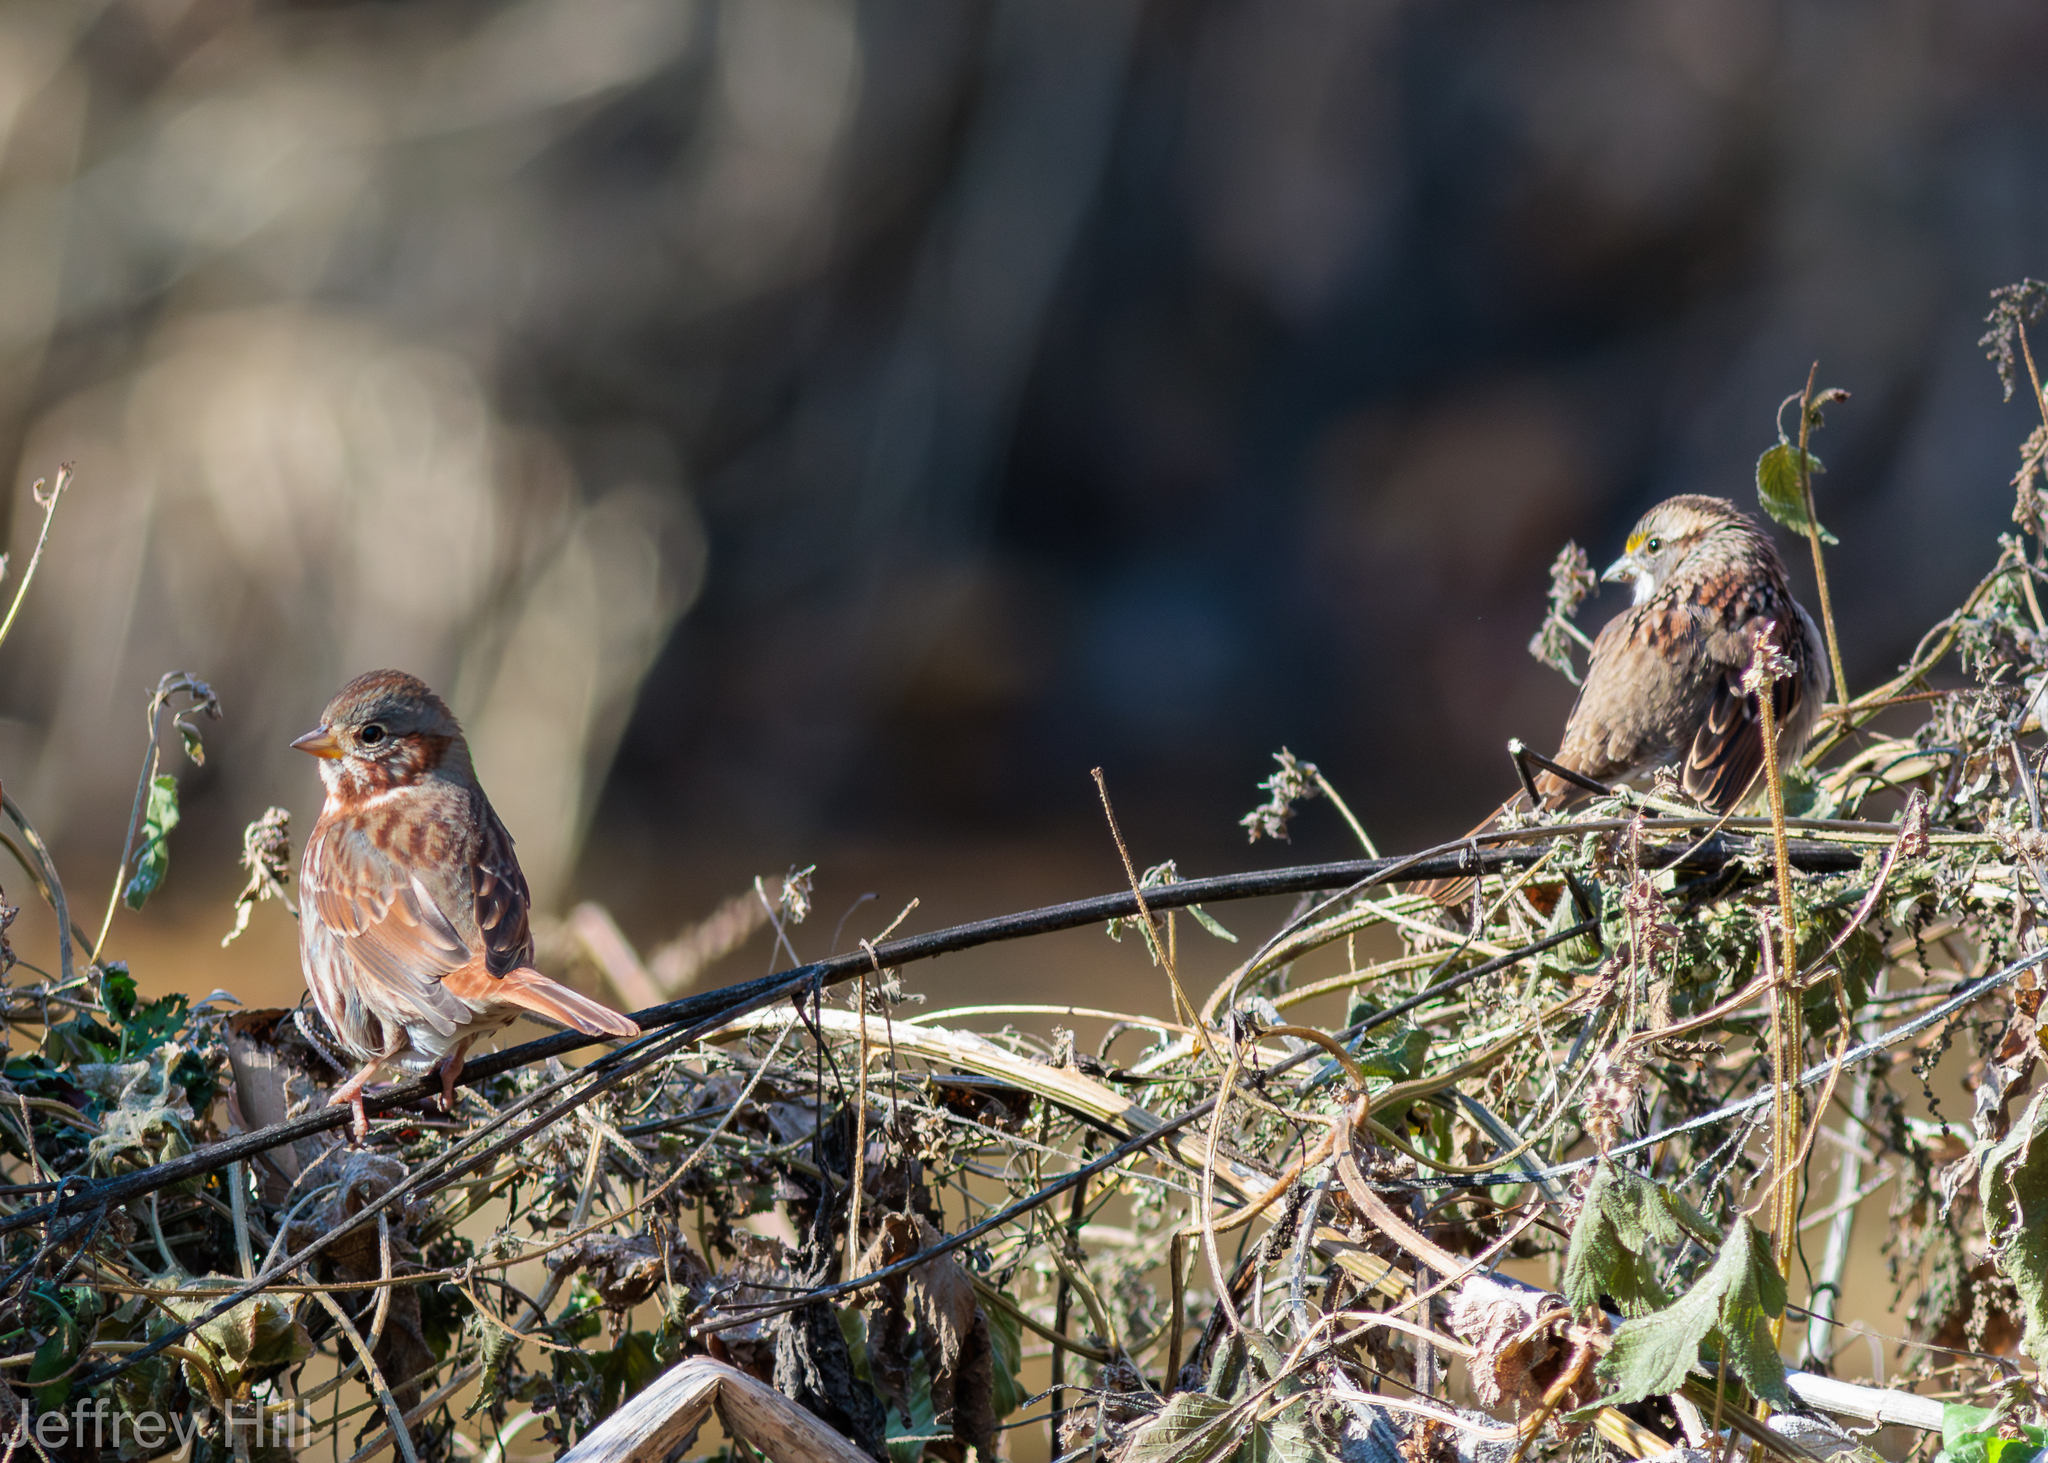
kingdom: Animalia
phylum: Chordata
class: Aves
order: Passeriformes
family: Passerellidae
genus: Passerella
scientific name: Passerella iliaca
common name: Fox sparrow
